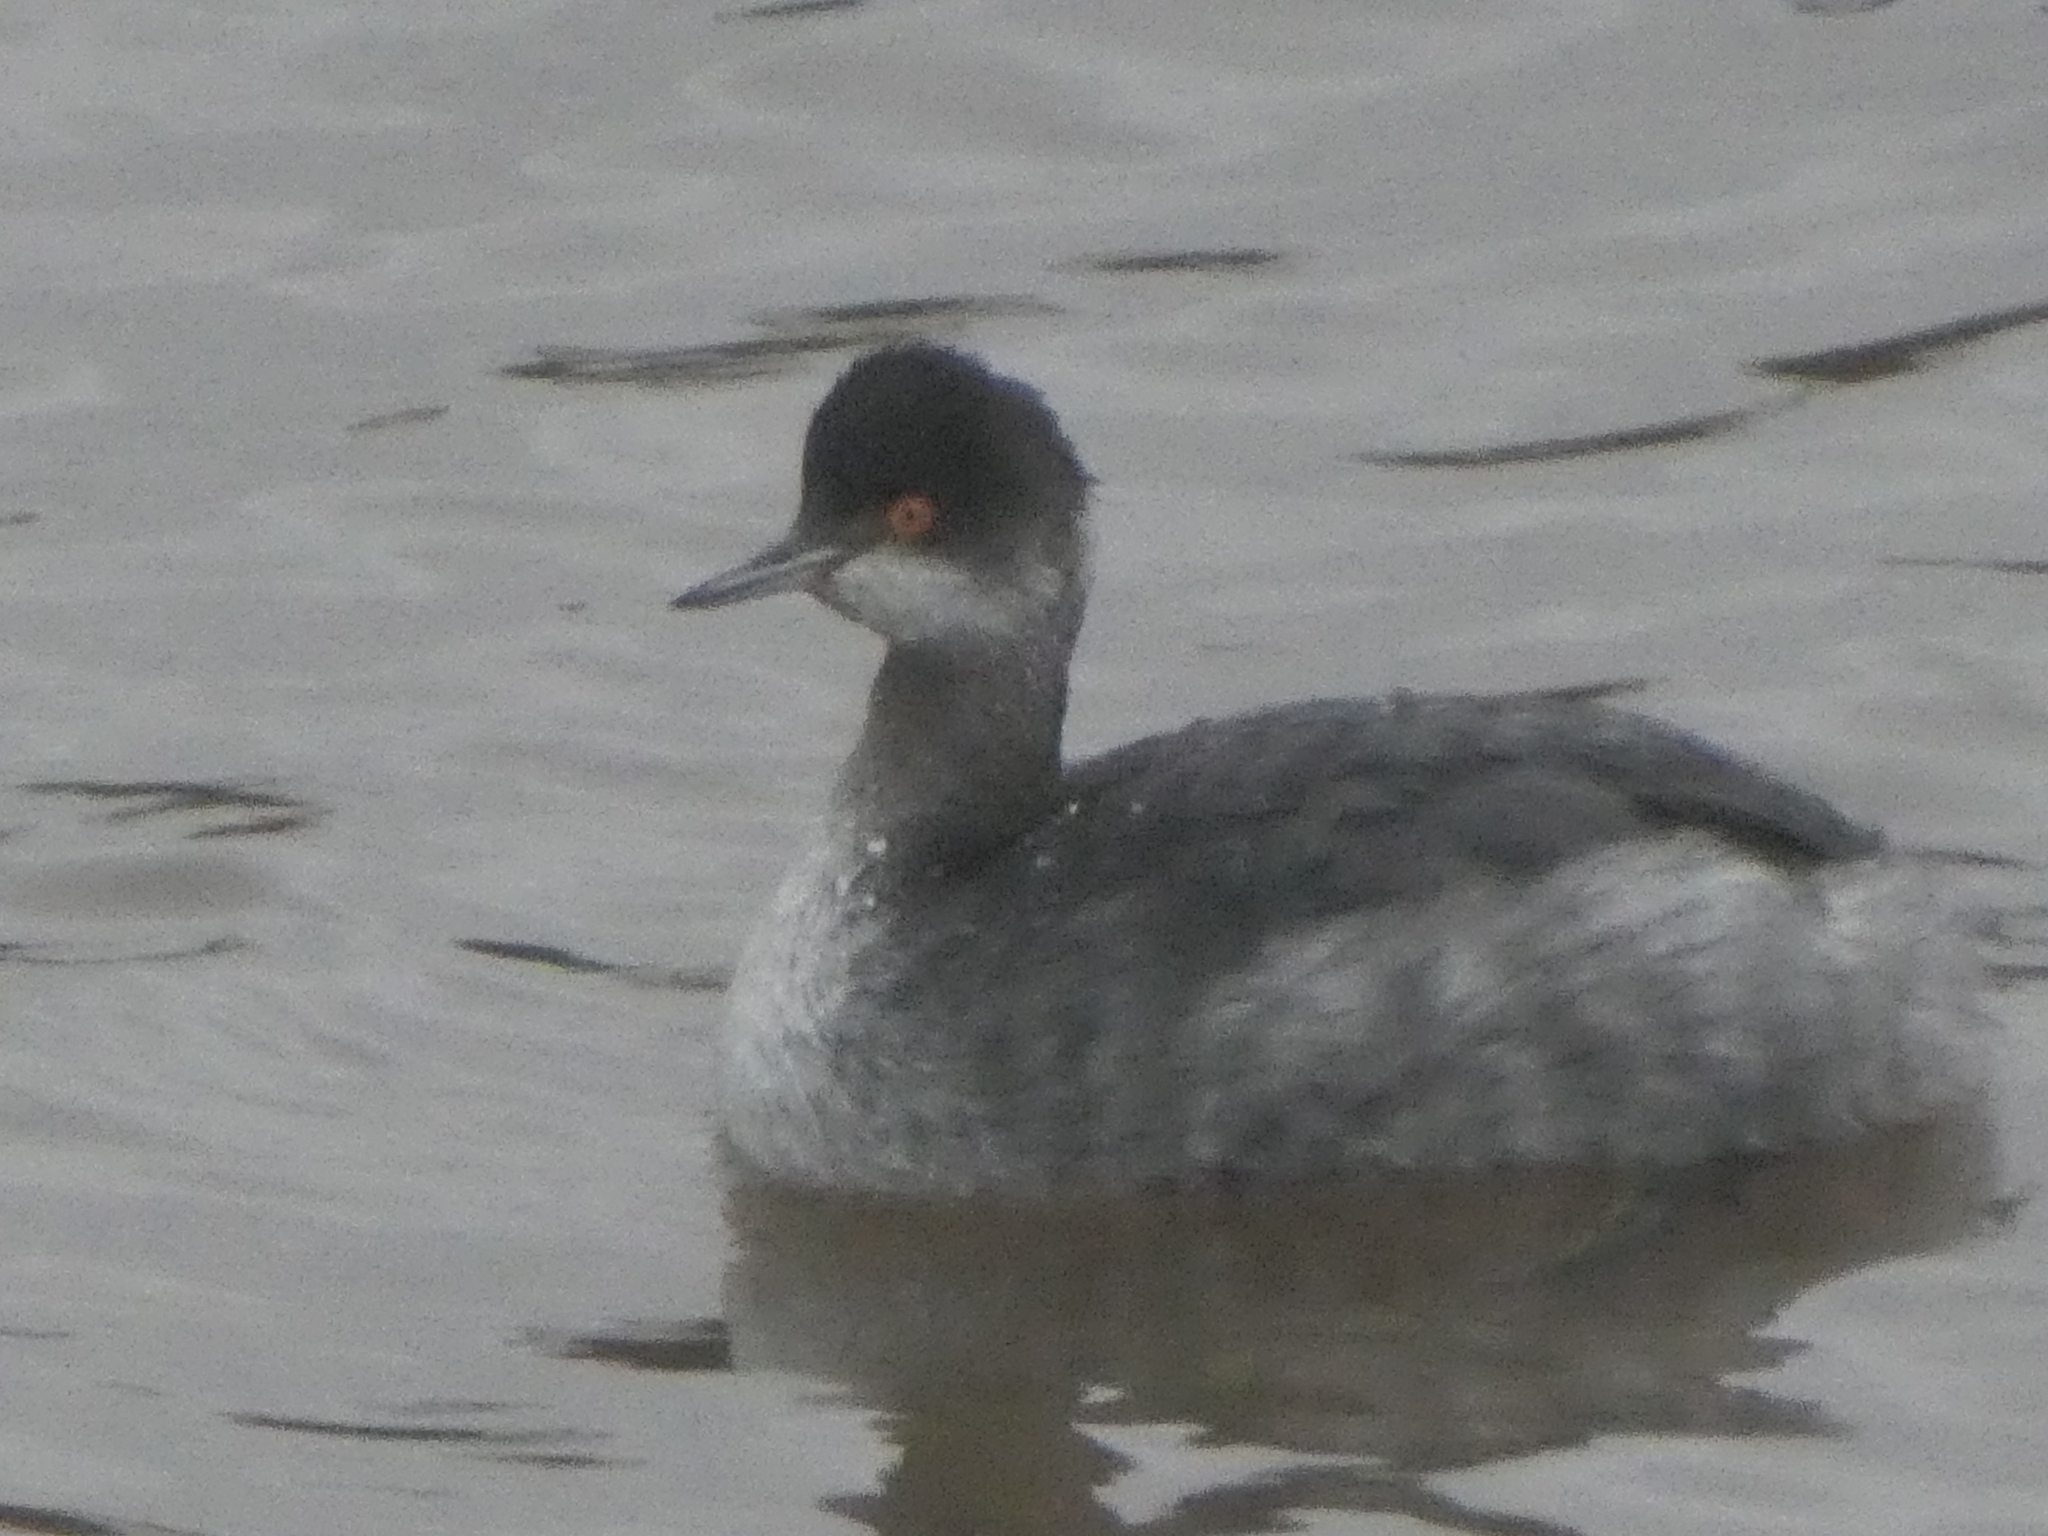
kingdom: Animalia
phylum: Chordata
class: Aves
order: Podicipediformes
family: Podicipedidae
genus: Podiceps
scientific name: Podiceps nigricollis
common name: Black-necked grebe
